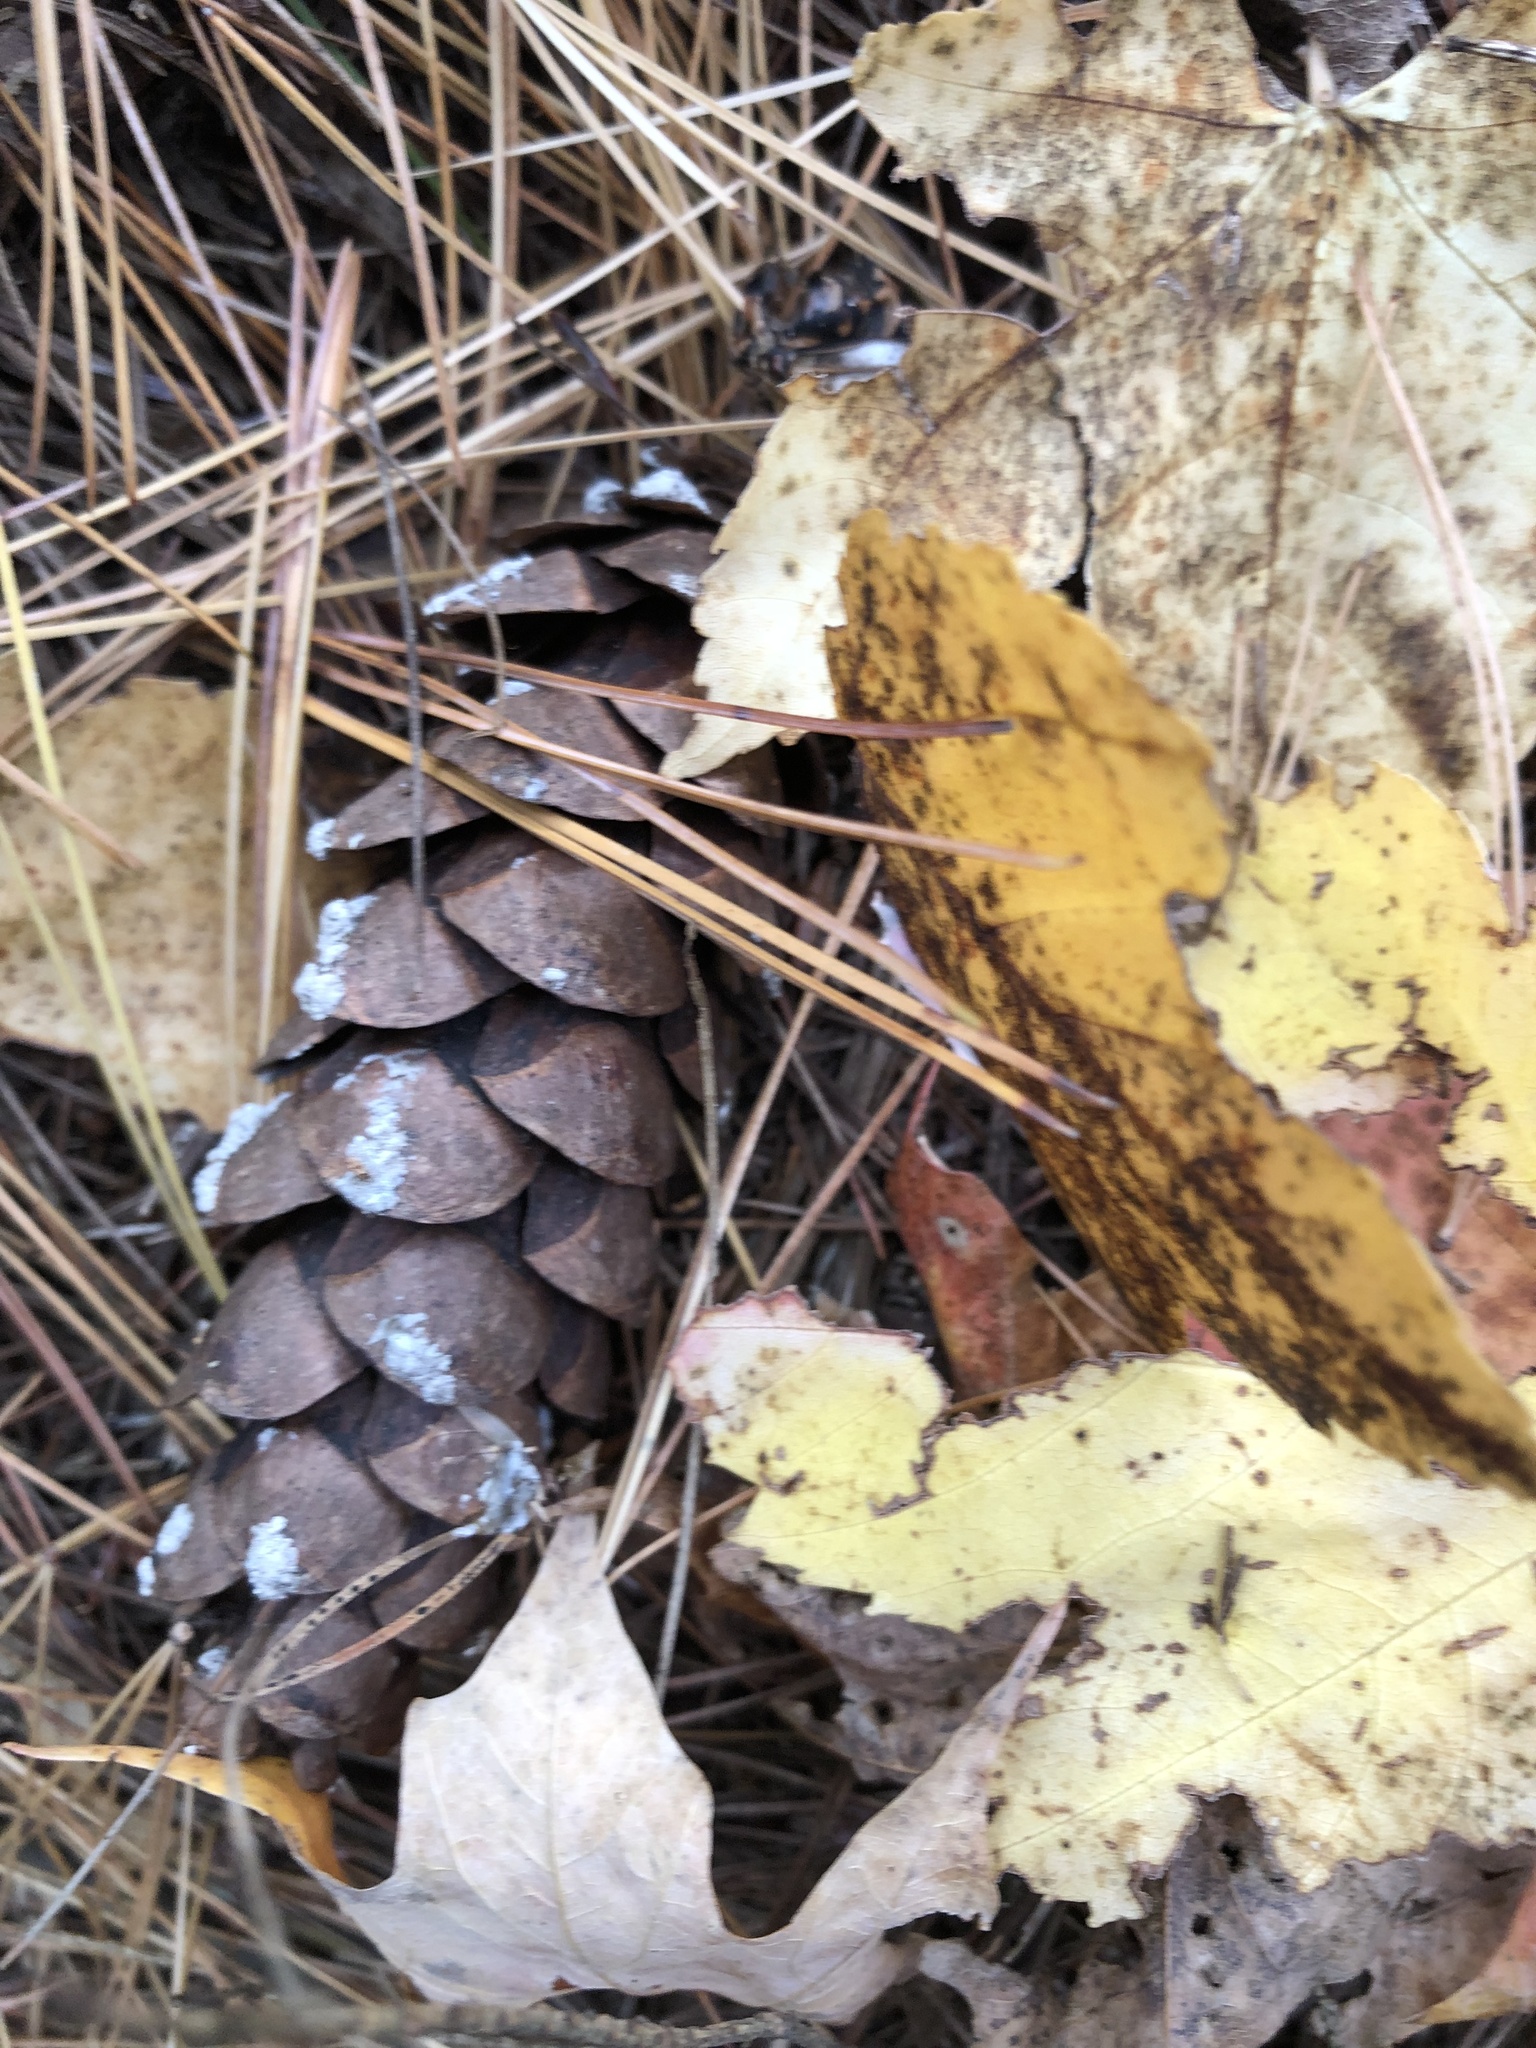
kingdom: Plantae
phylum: Tracheophyta
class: Pinopsida
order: Pinales
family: Pinaceae
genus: Pinus
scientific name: Pinus strobus
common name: Weymouth pine
